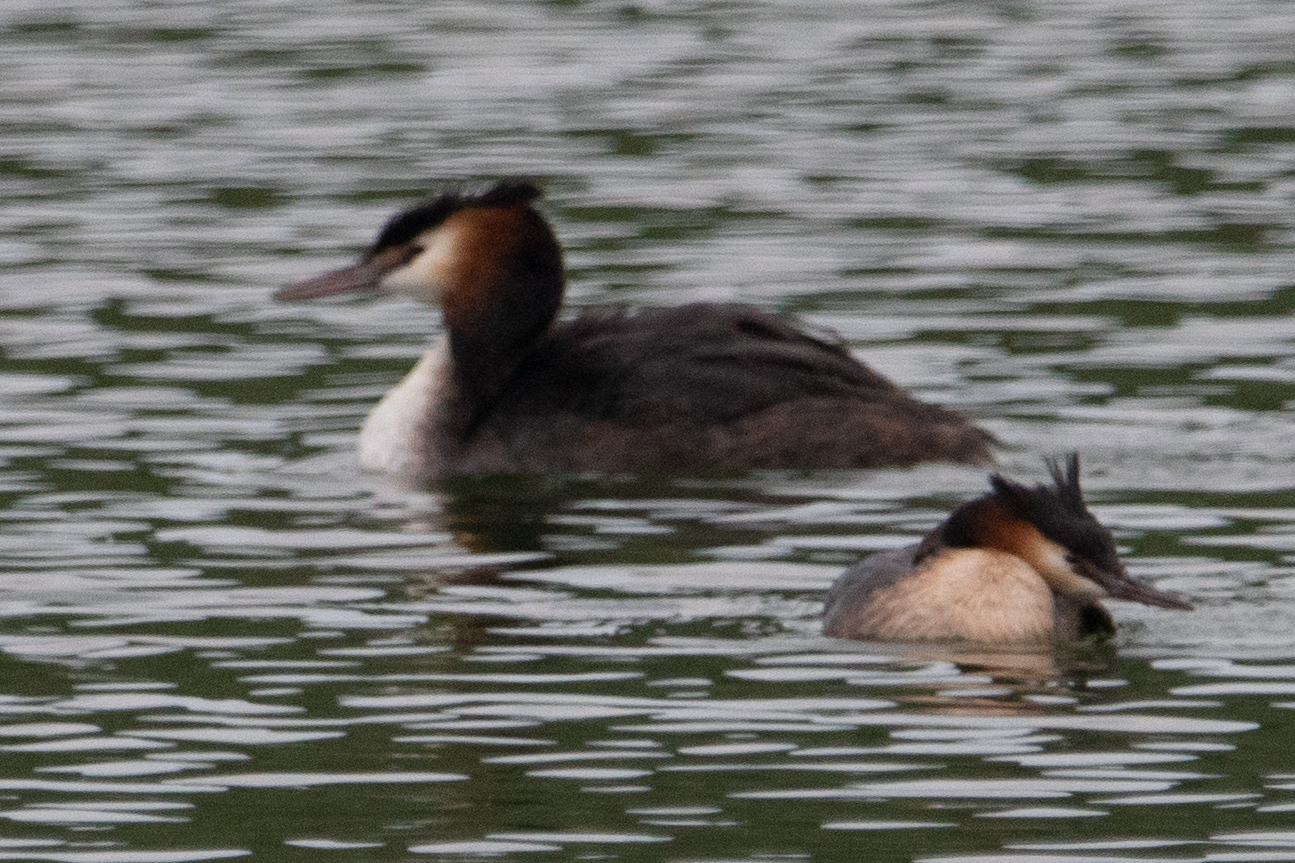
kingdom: Animalia
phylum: Chordata
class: Aves
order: Podicipediformes
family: Podicipedidae
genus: Podiceps
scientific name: Podiceps cristatus
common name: Great crested grebe
